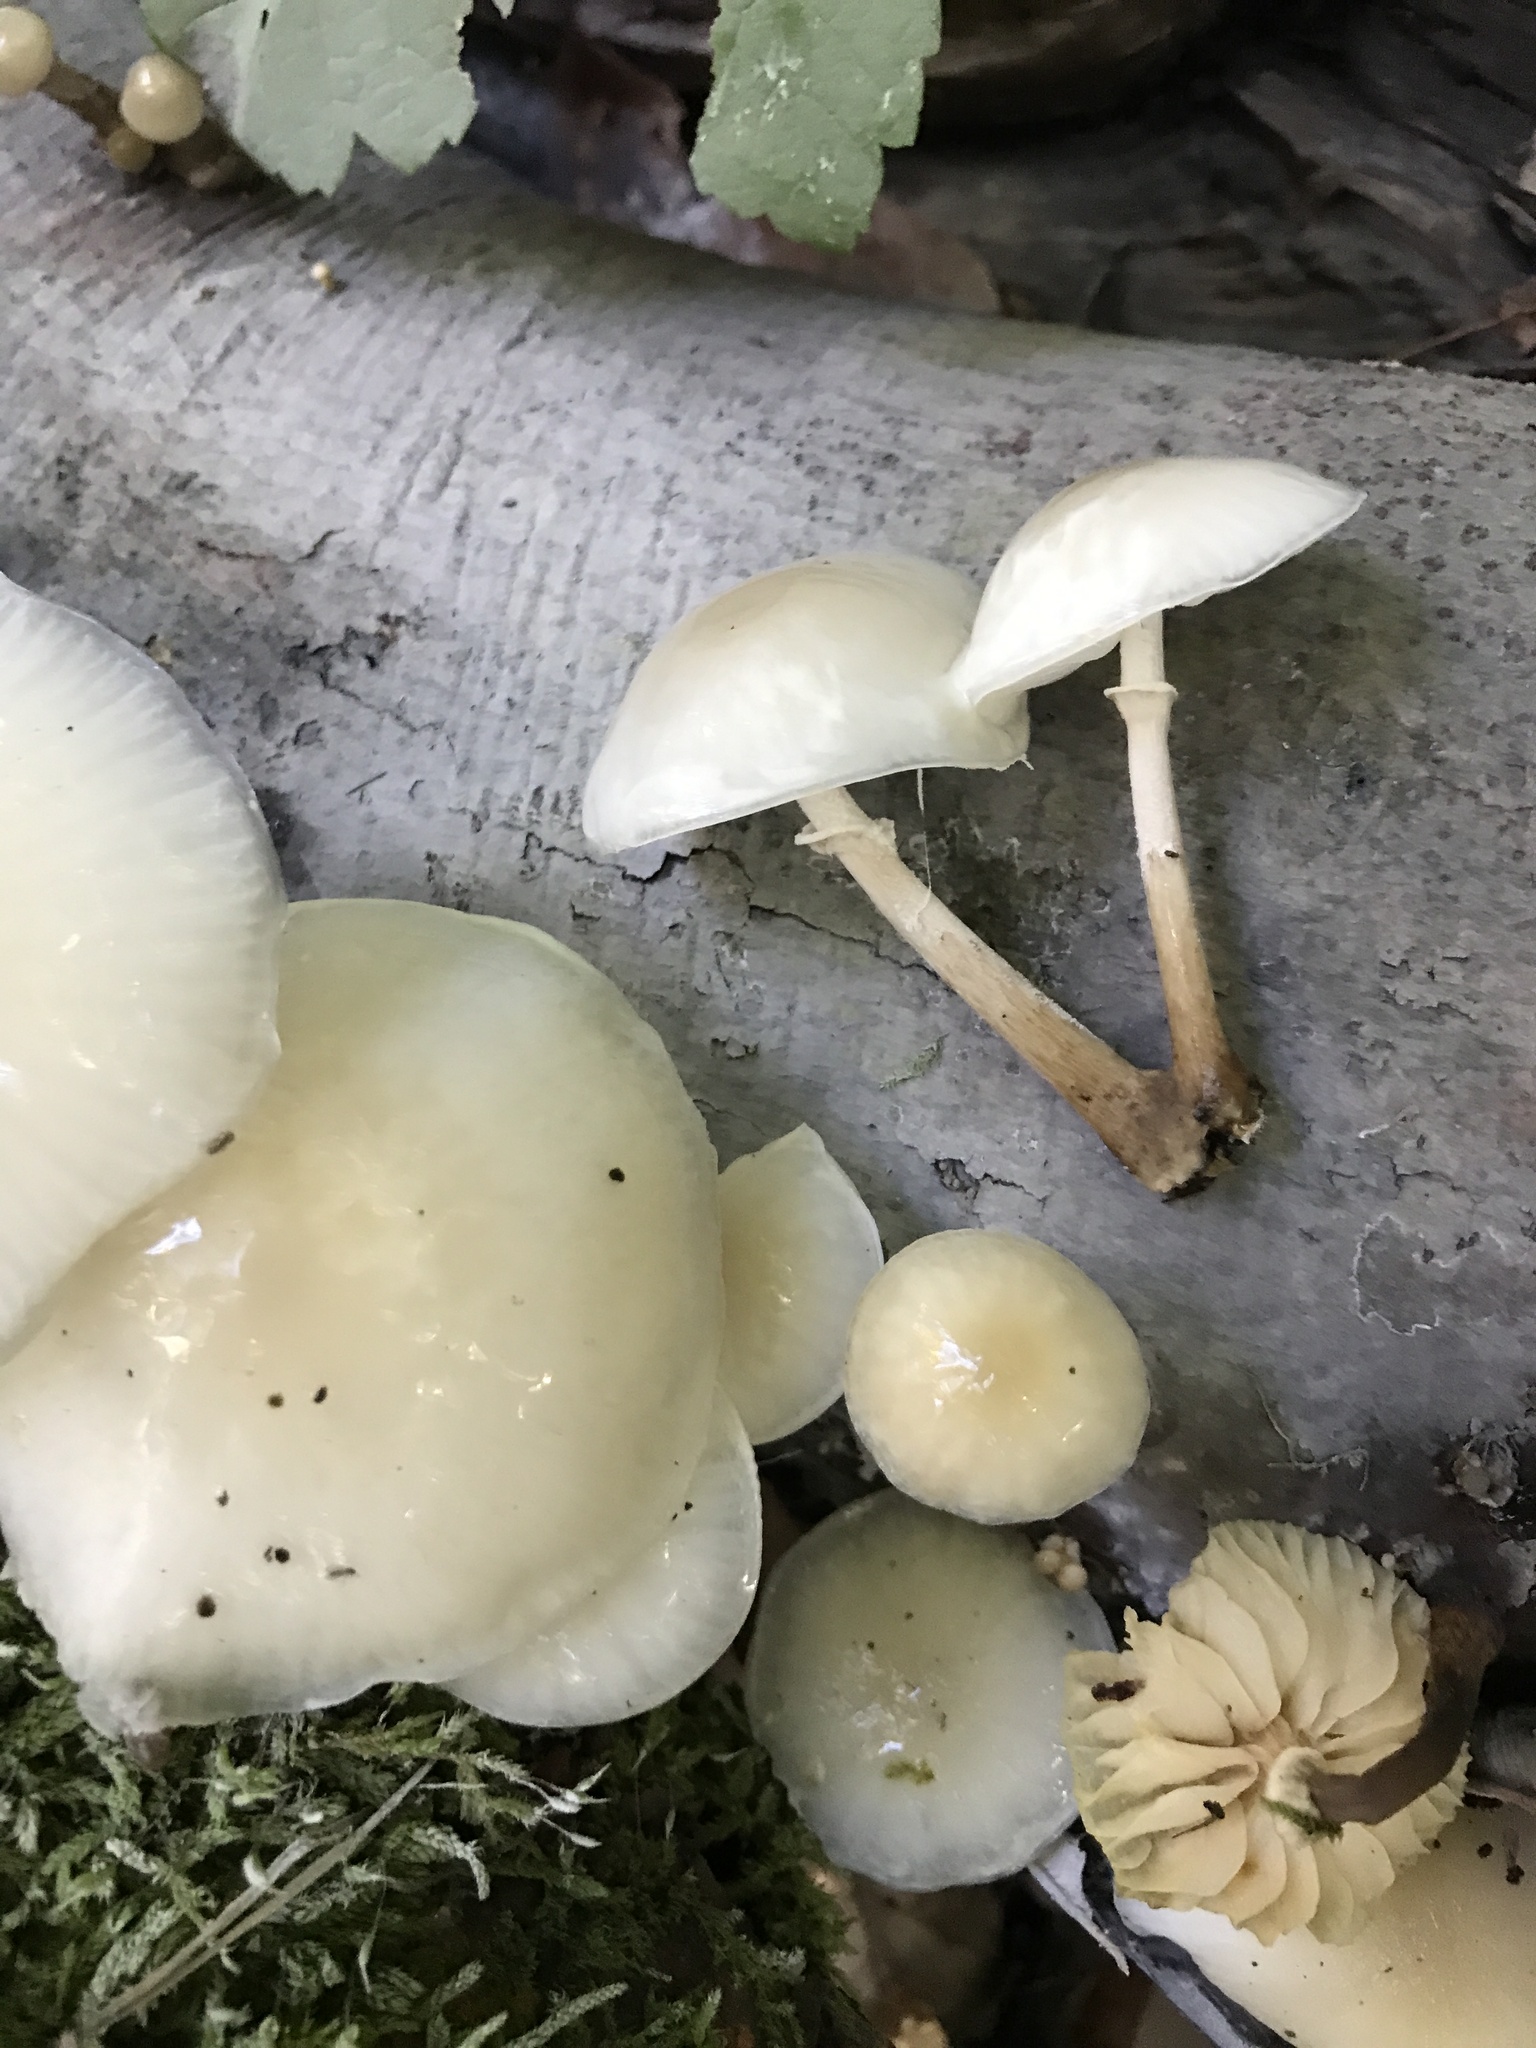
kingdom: Fungi
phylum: Basidiomycota
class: Agaricomycetes
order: Agaricales
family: Physalacriaceae
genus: Mucidula
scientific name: Mucidula mucida
